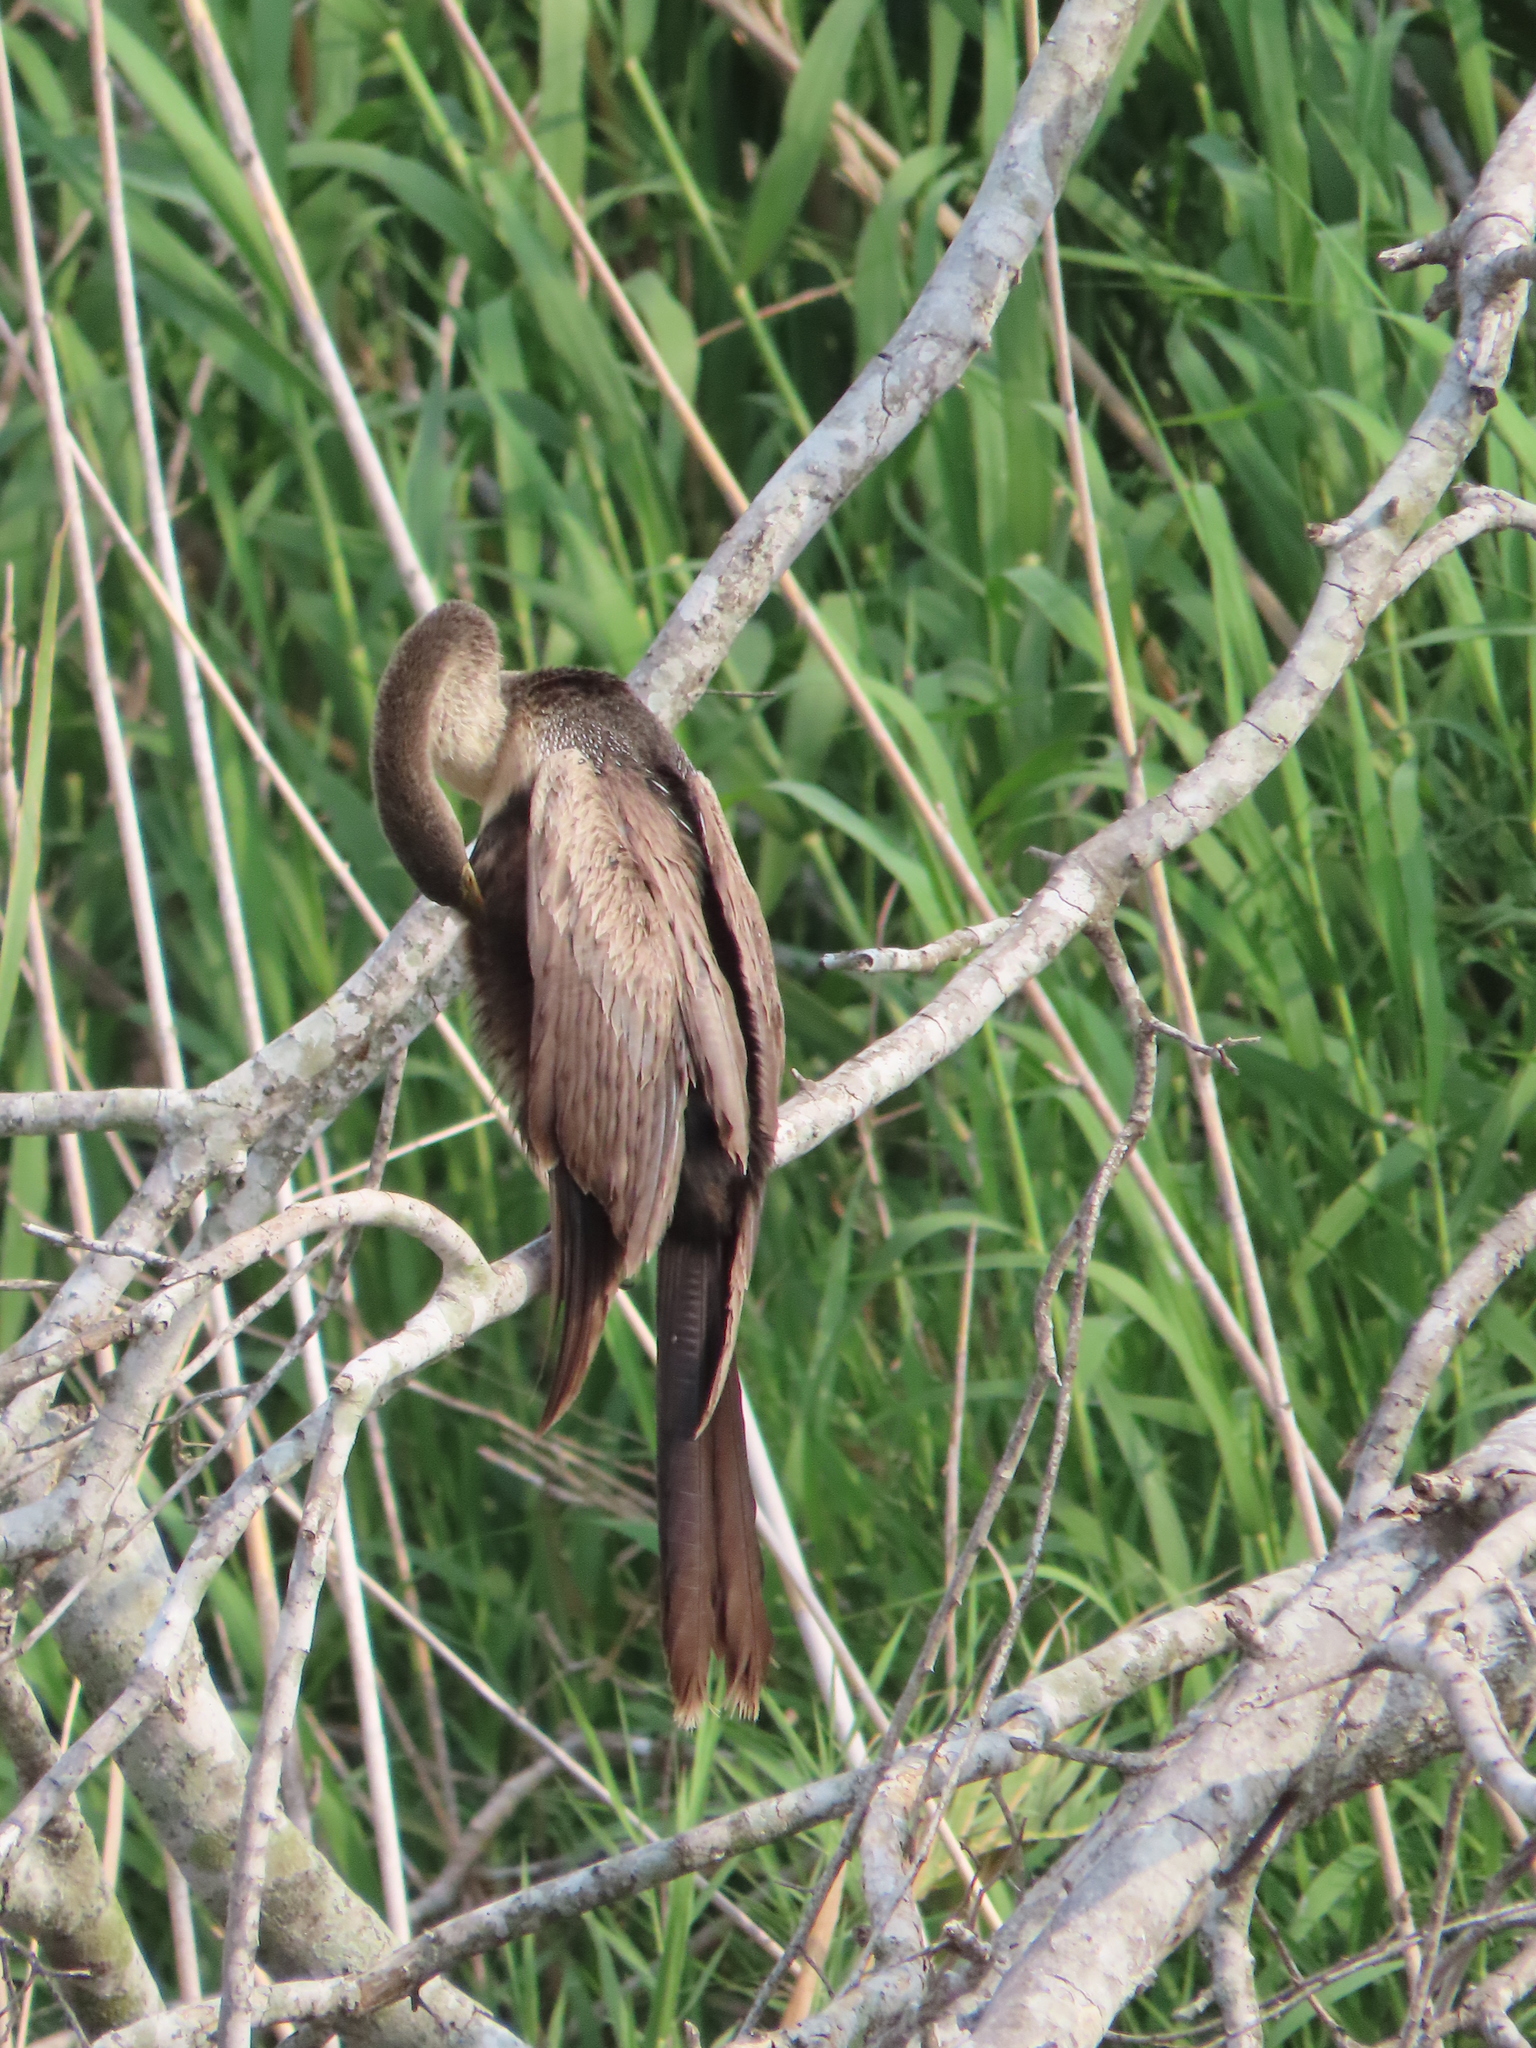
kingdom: Animalia
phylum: Chordata
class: Aves
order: Suliformes
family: Anhingidae
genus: Anhinga
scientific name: Anhinga anhinga
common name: Anhinga
